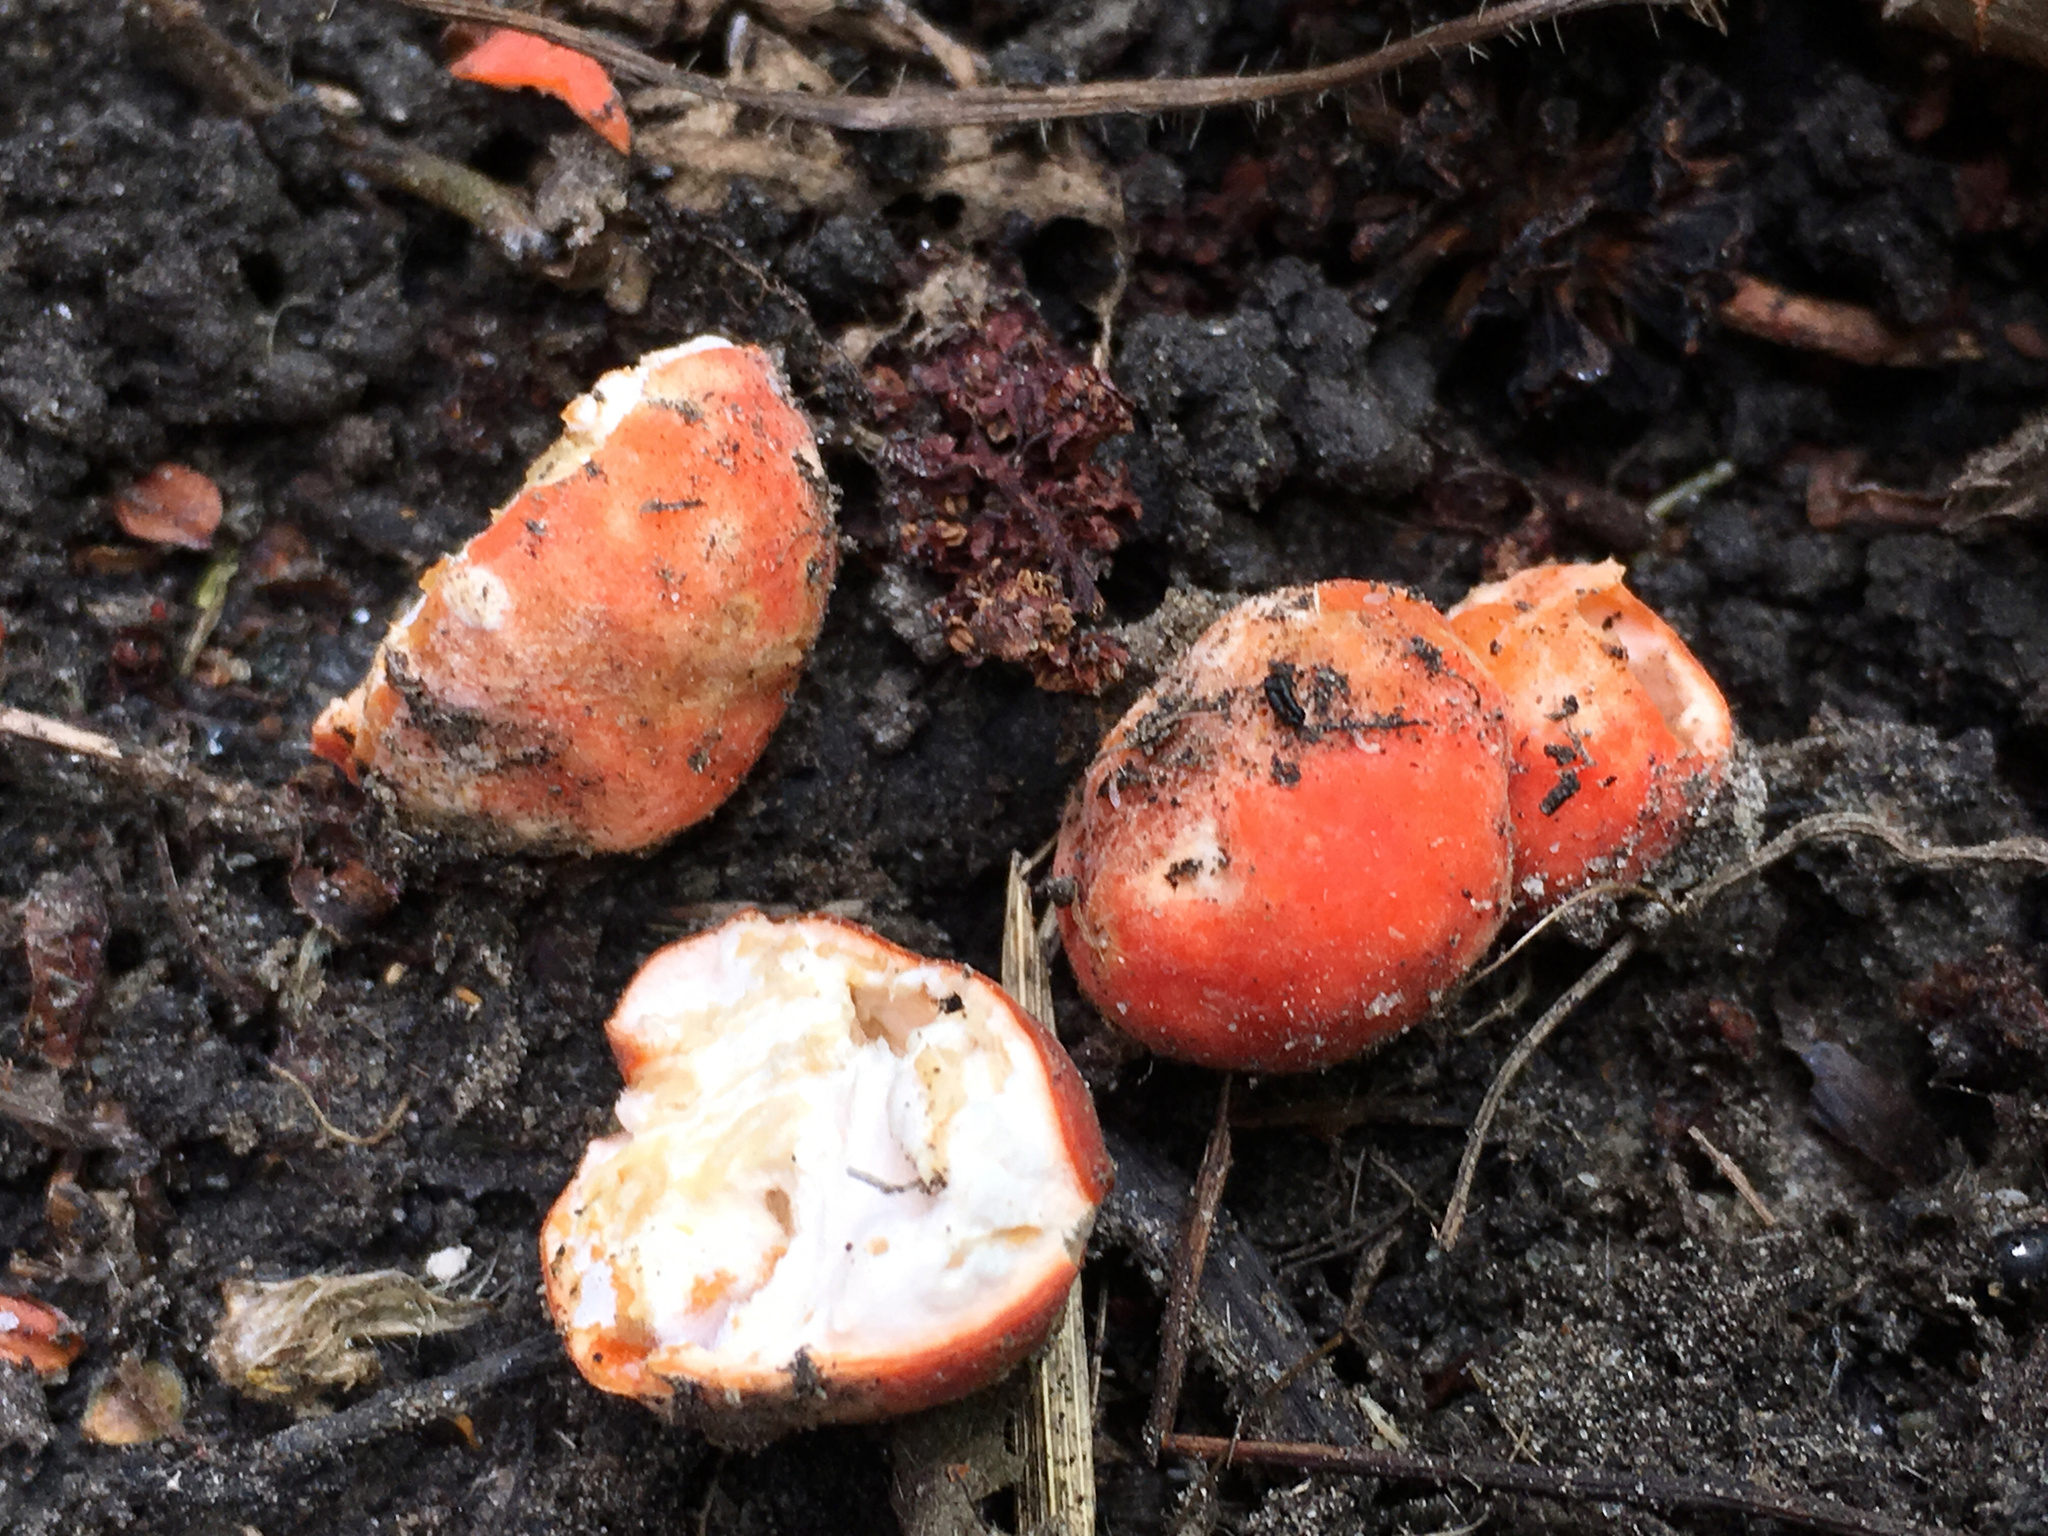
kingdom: Fungi
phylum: Ascomycota
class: Pezizomycetes
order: Pezizales
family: Pyronemataceae
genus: Paurocotylis
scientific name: Paurocotylis pila
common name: Scarlet berry truffle
